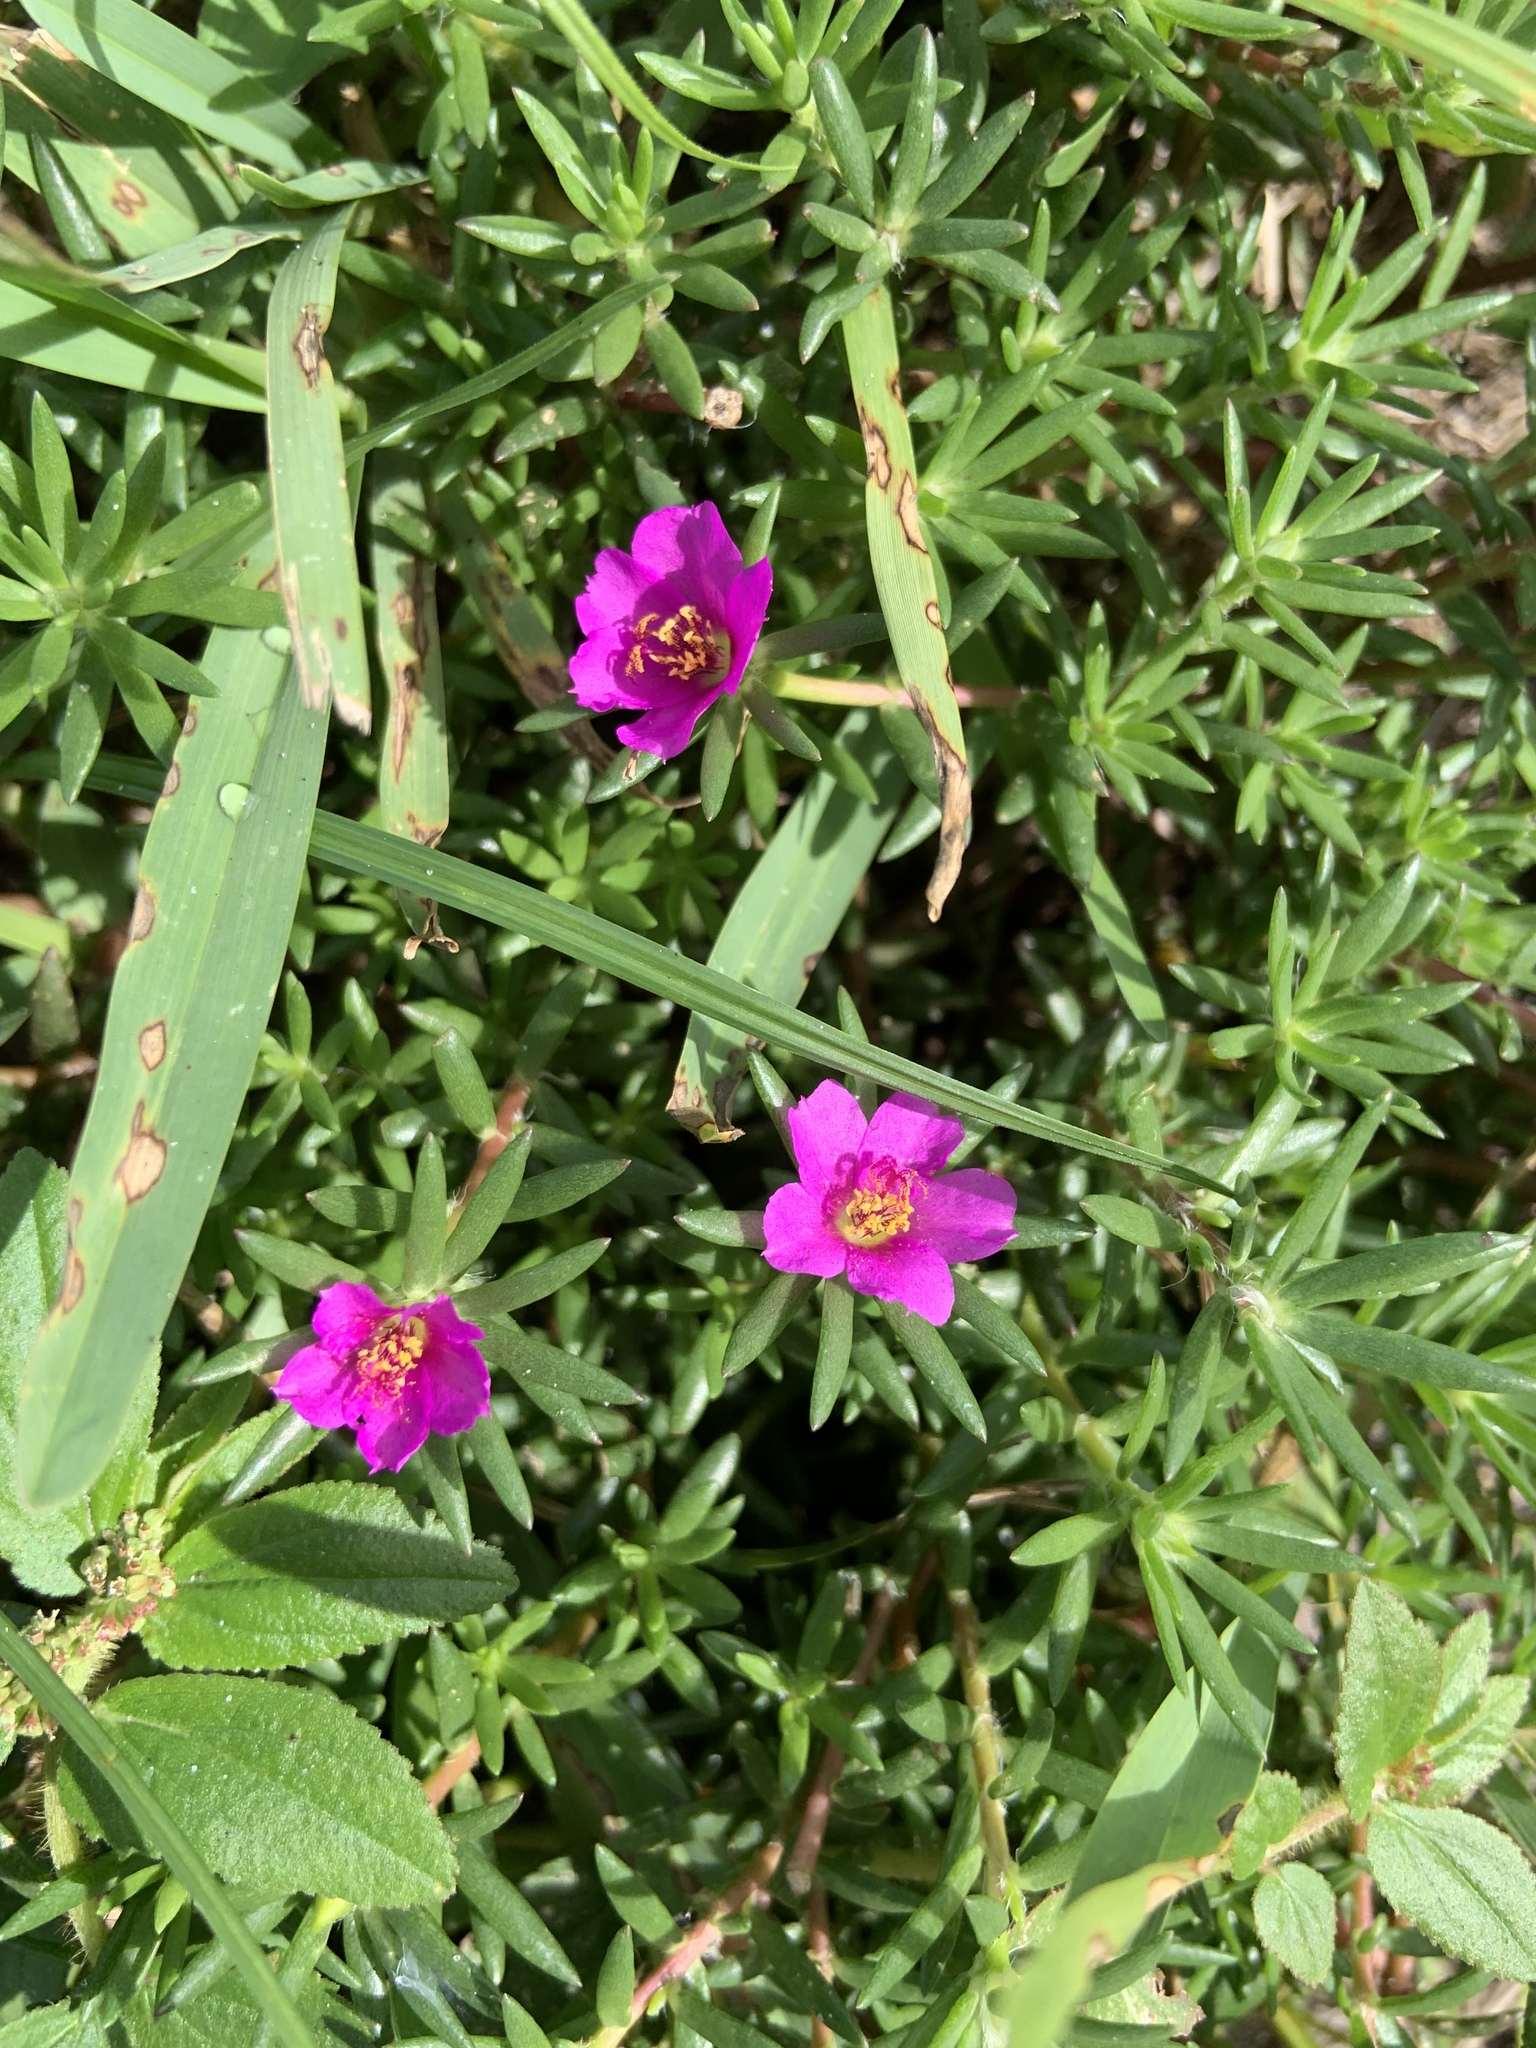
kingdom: Plantae
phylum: Tracheophyta
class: Magnoliopsida
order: Caryophyllales
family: Portulacaceae
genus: Portulaca
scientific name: Portulaca pilosa
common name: Kiss me quick
